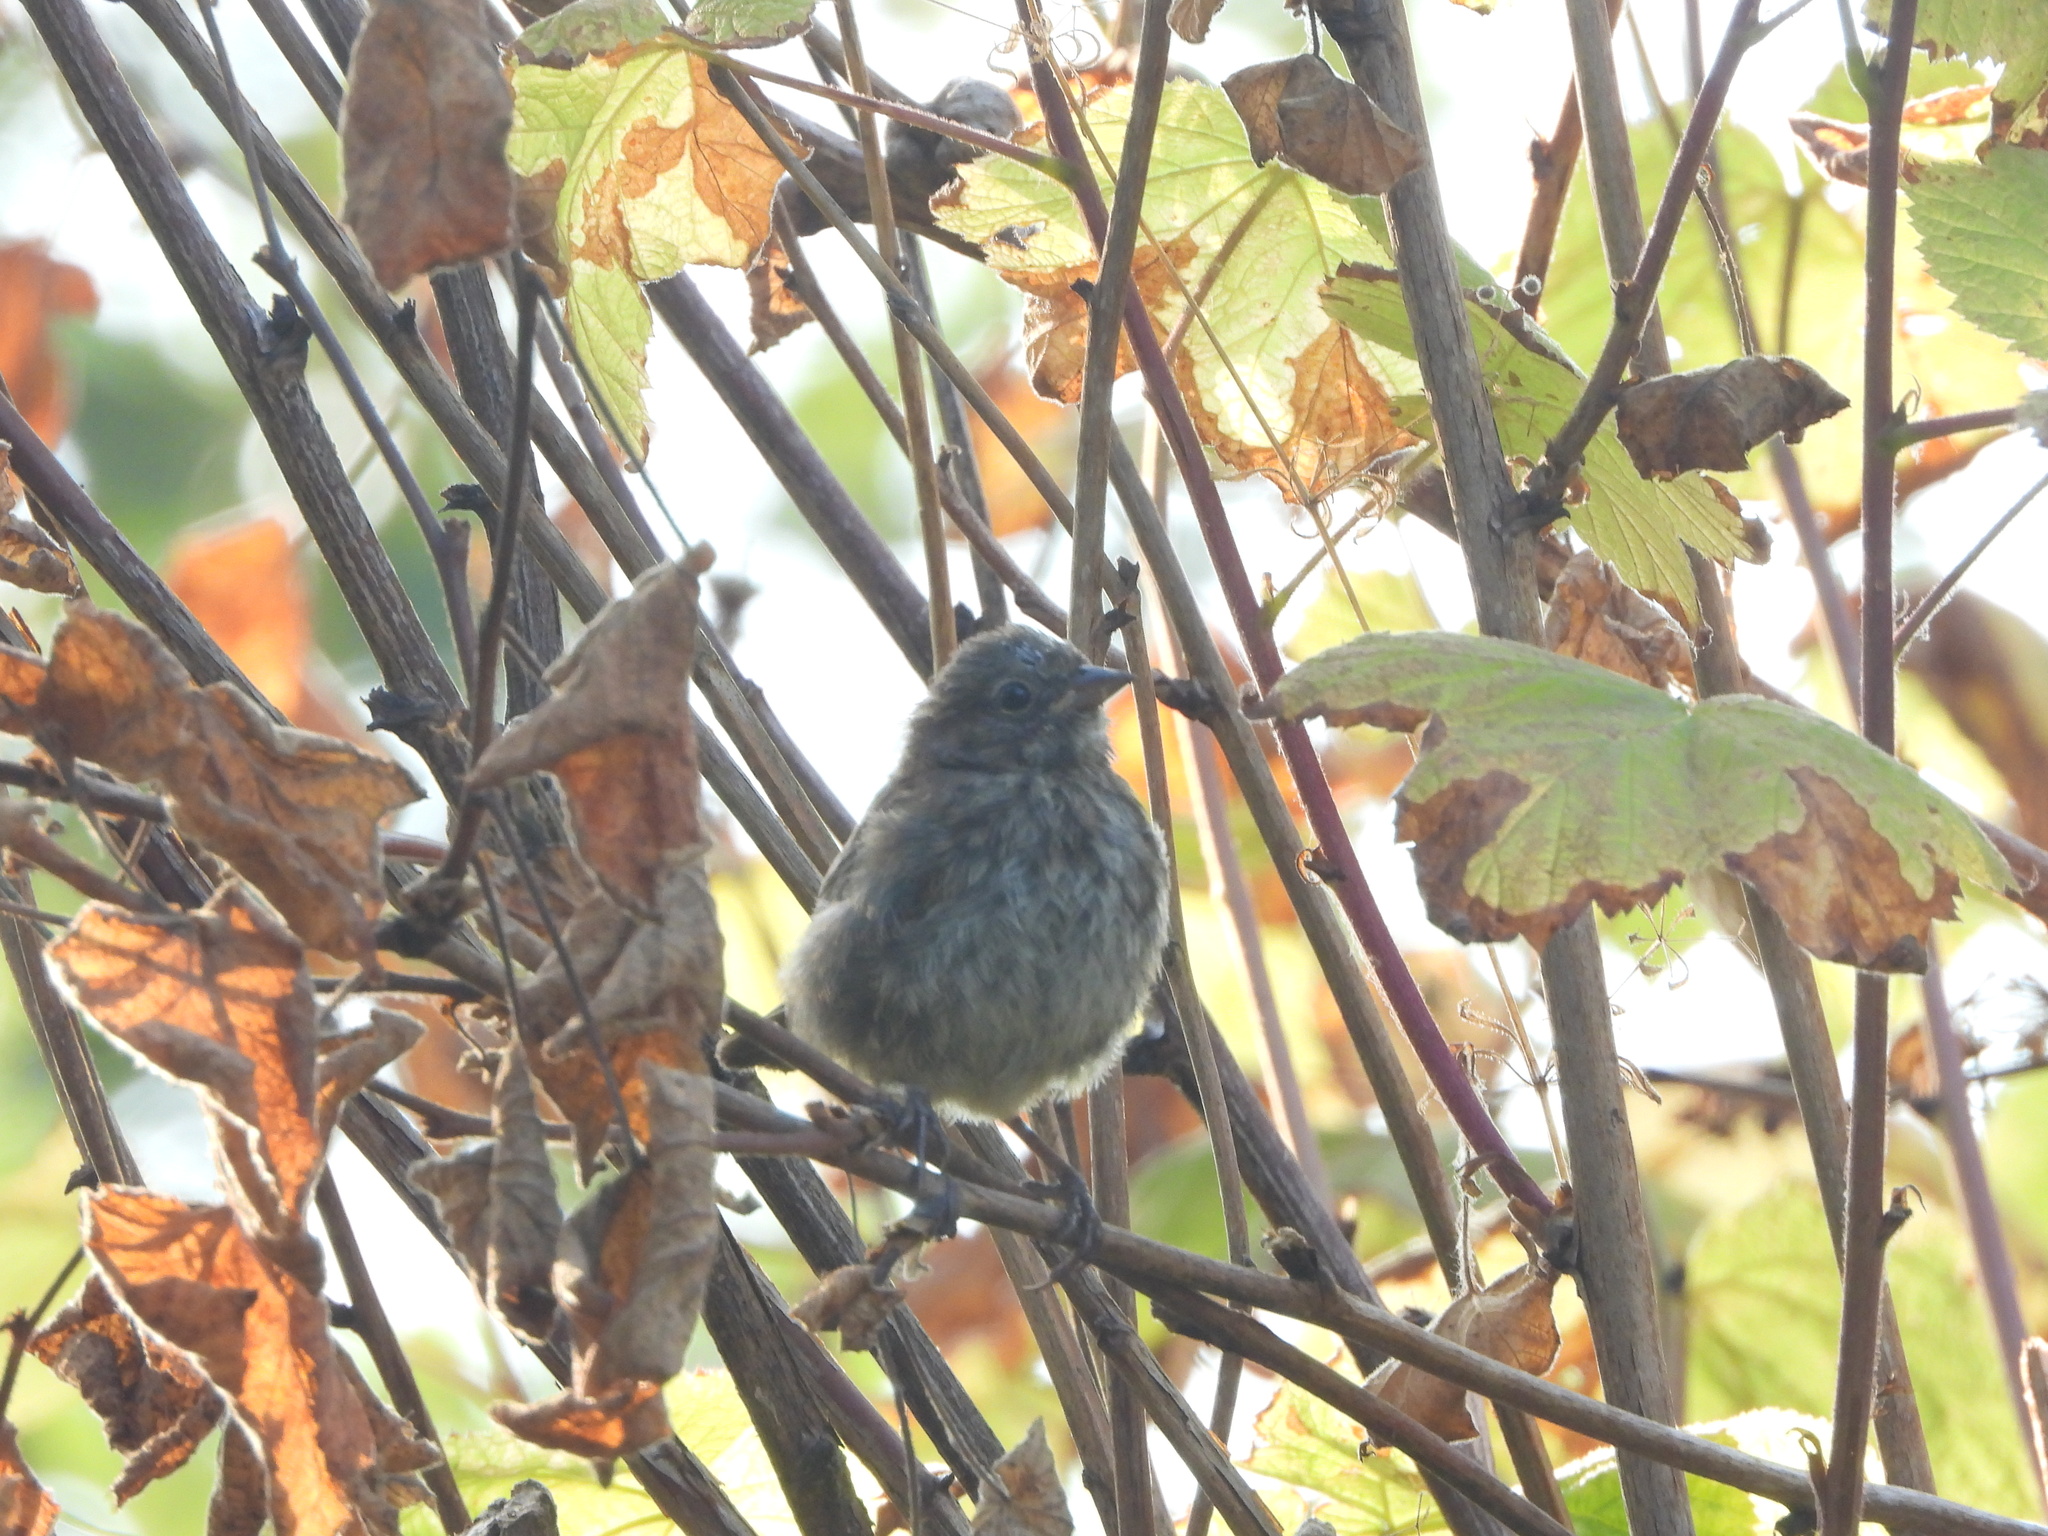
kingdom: Animalia
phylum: Chordata
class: Aves
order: Passeriformes
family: Passerellidae
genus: Melospiza
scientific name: Melospiza melodia
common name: Song sparrow
